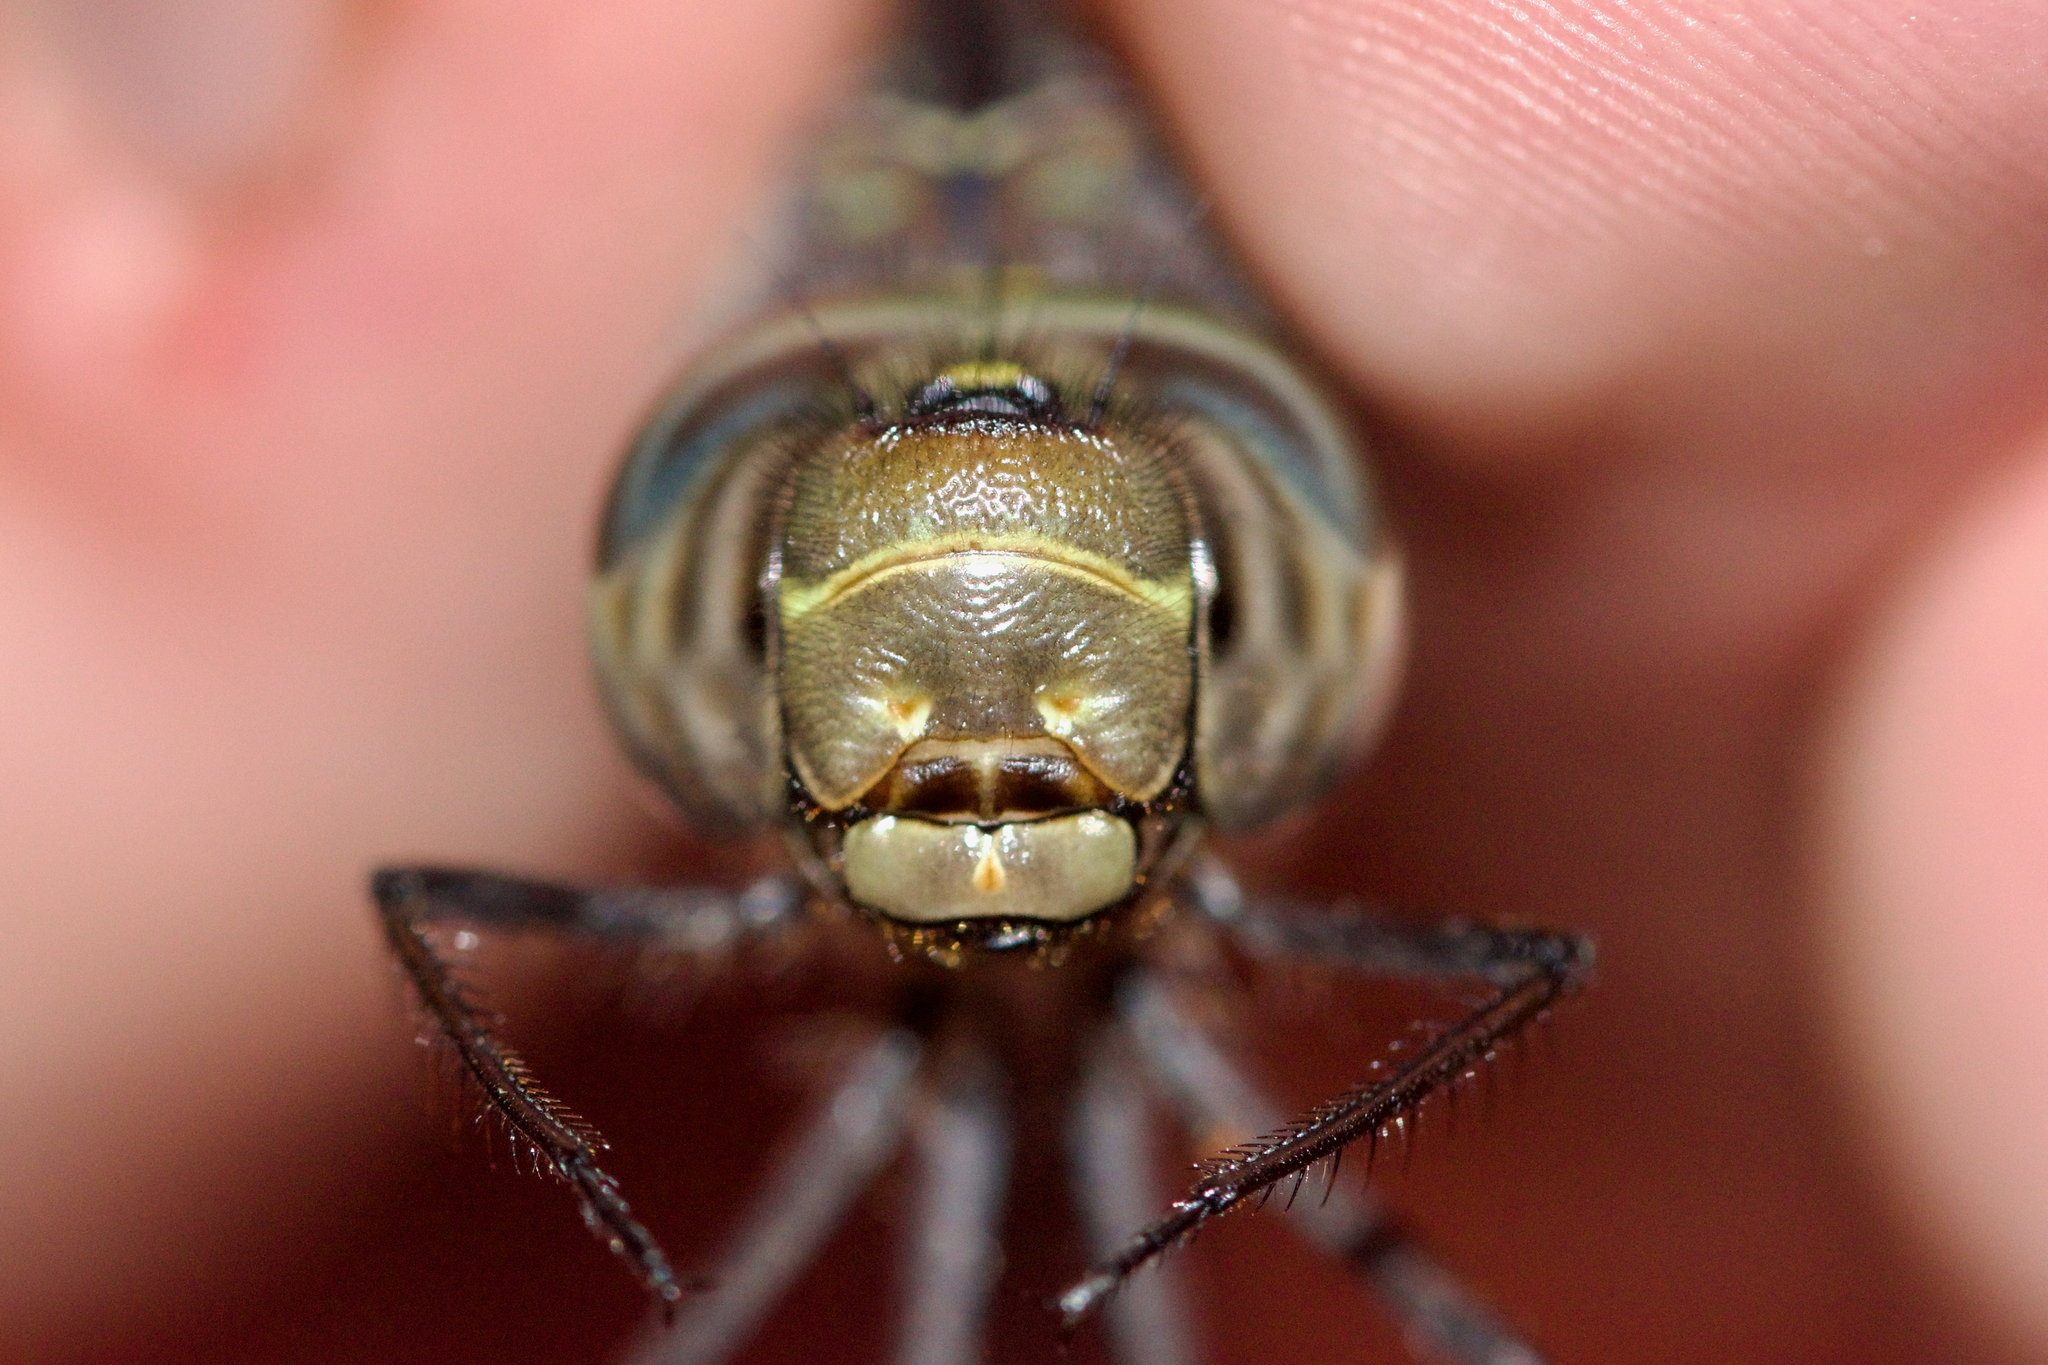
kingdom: Animalia
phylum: Arthropoda
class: Insecta
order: Odonata
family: Aeshnidae
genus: Aeshna
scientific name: Aeshna canadensis
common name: Canada darner
